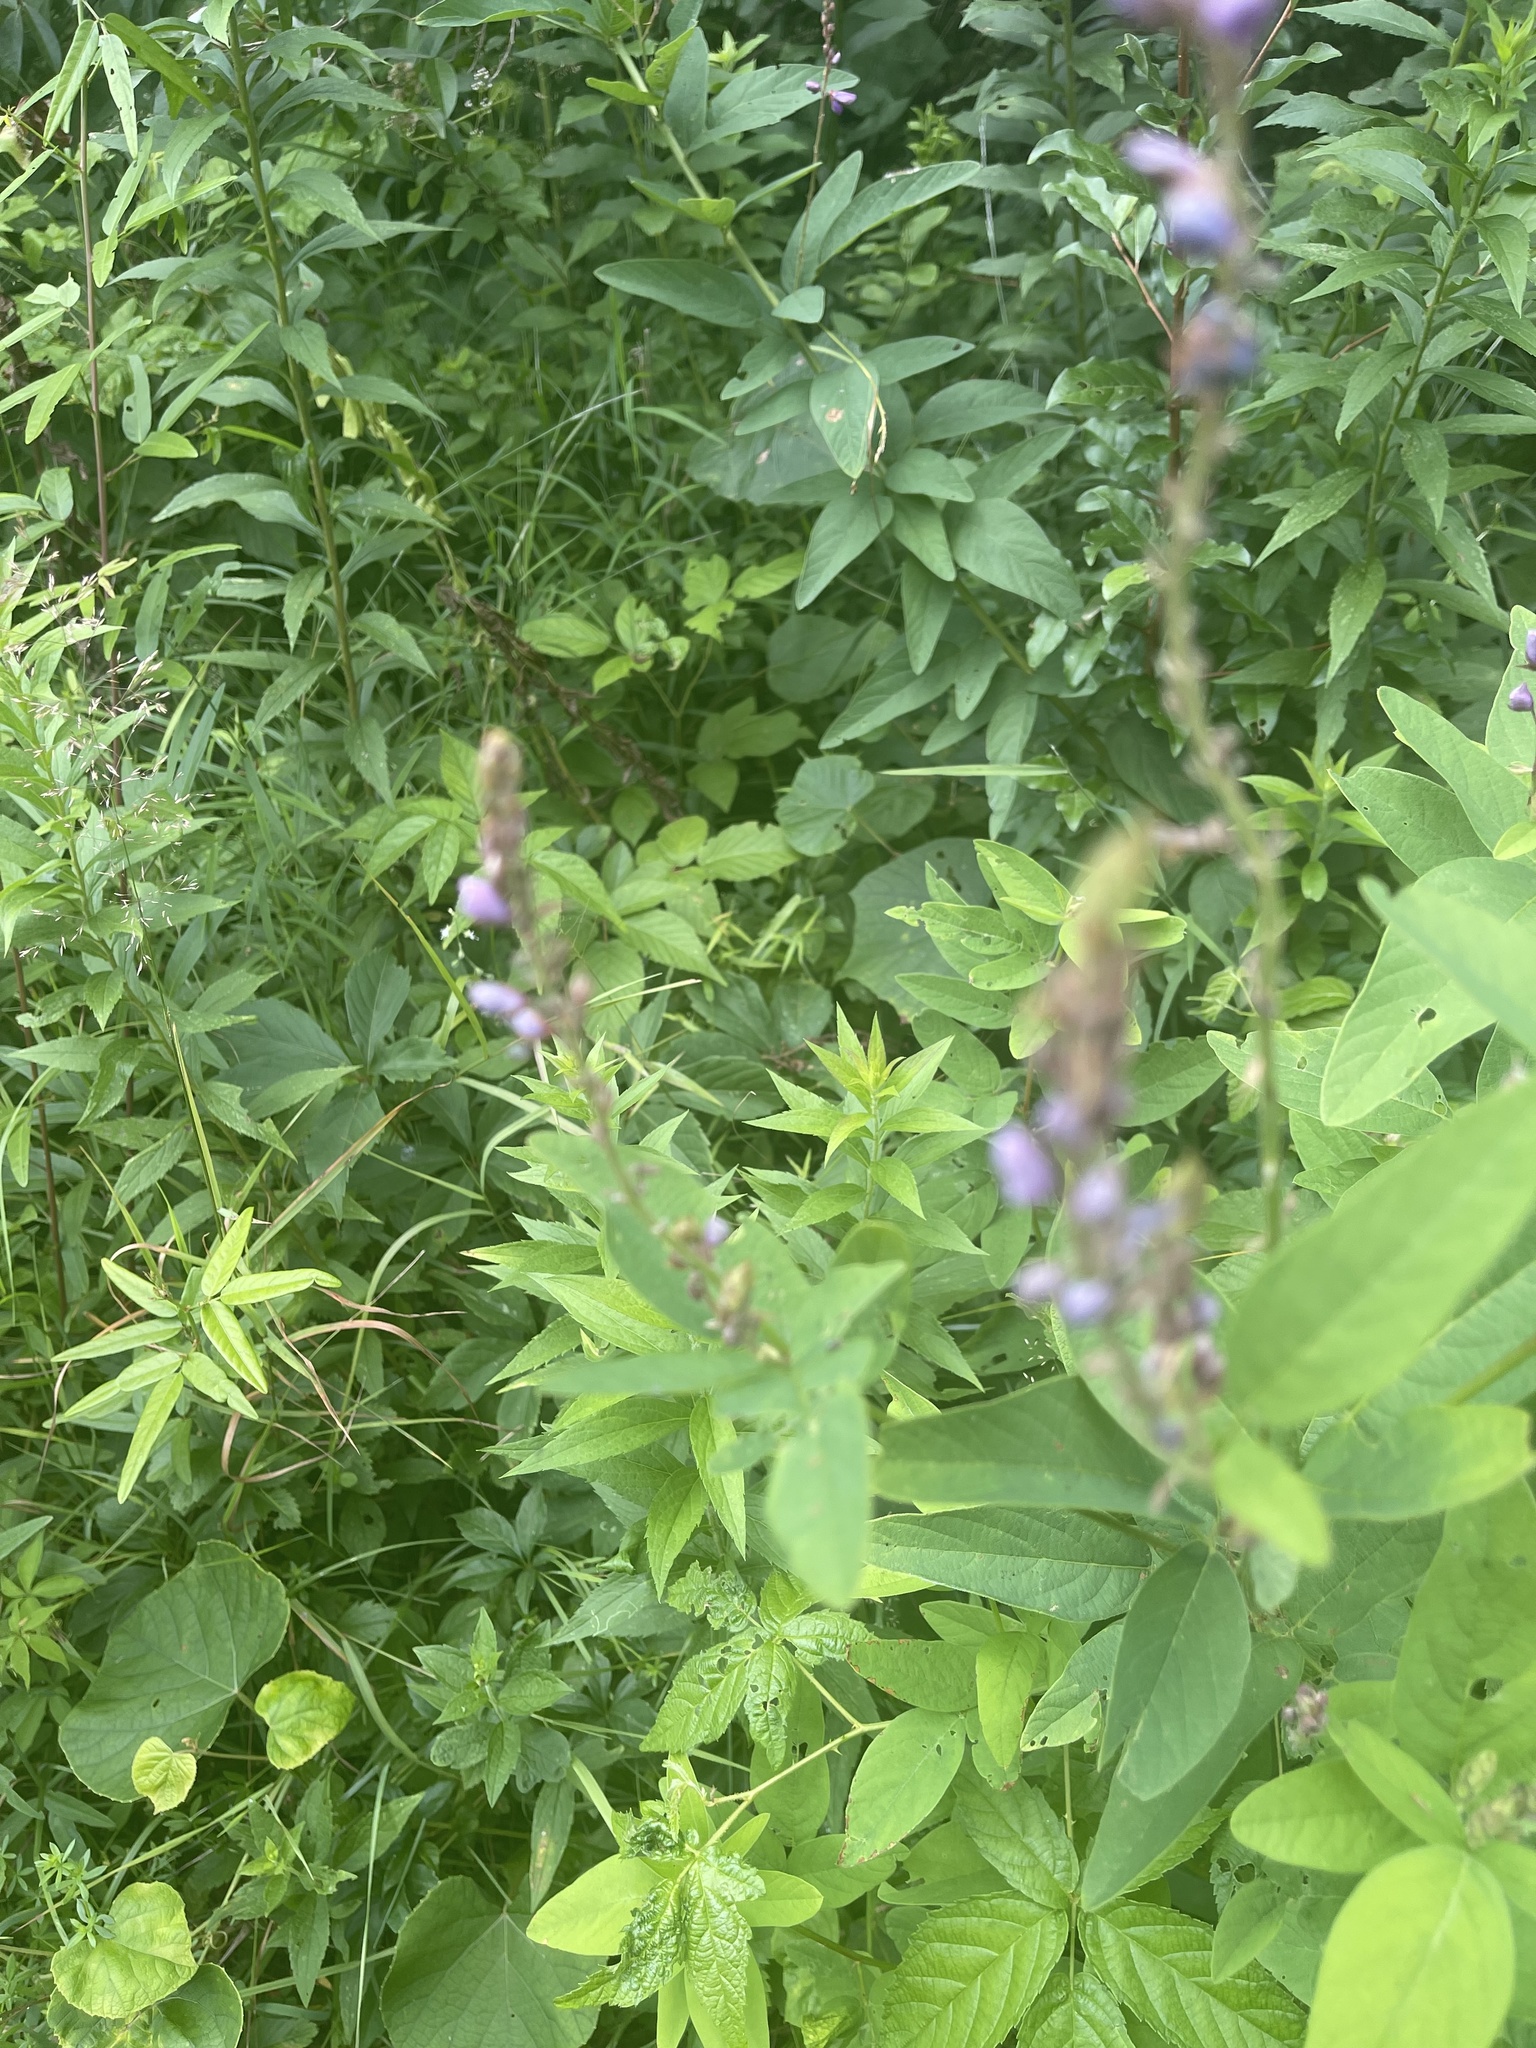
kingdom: Plantae
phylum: Tracheophyta
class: Magnoliopsida
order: Fabales
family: Fabaceae
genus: Desmodium
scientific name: Desmodium canadense
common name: Canada tick-trefoil
